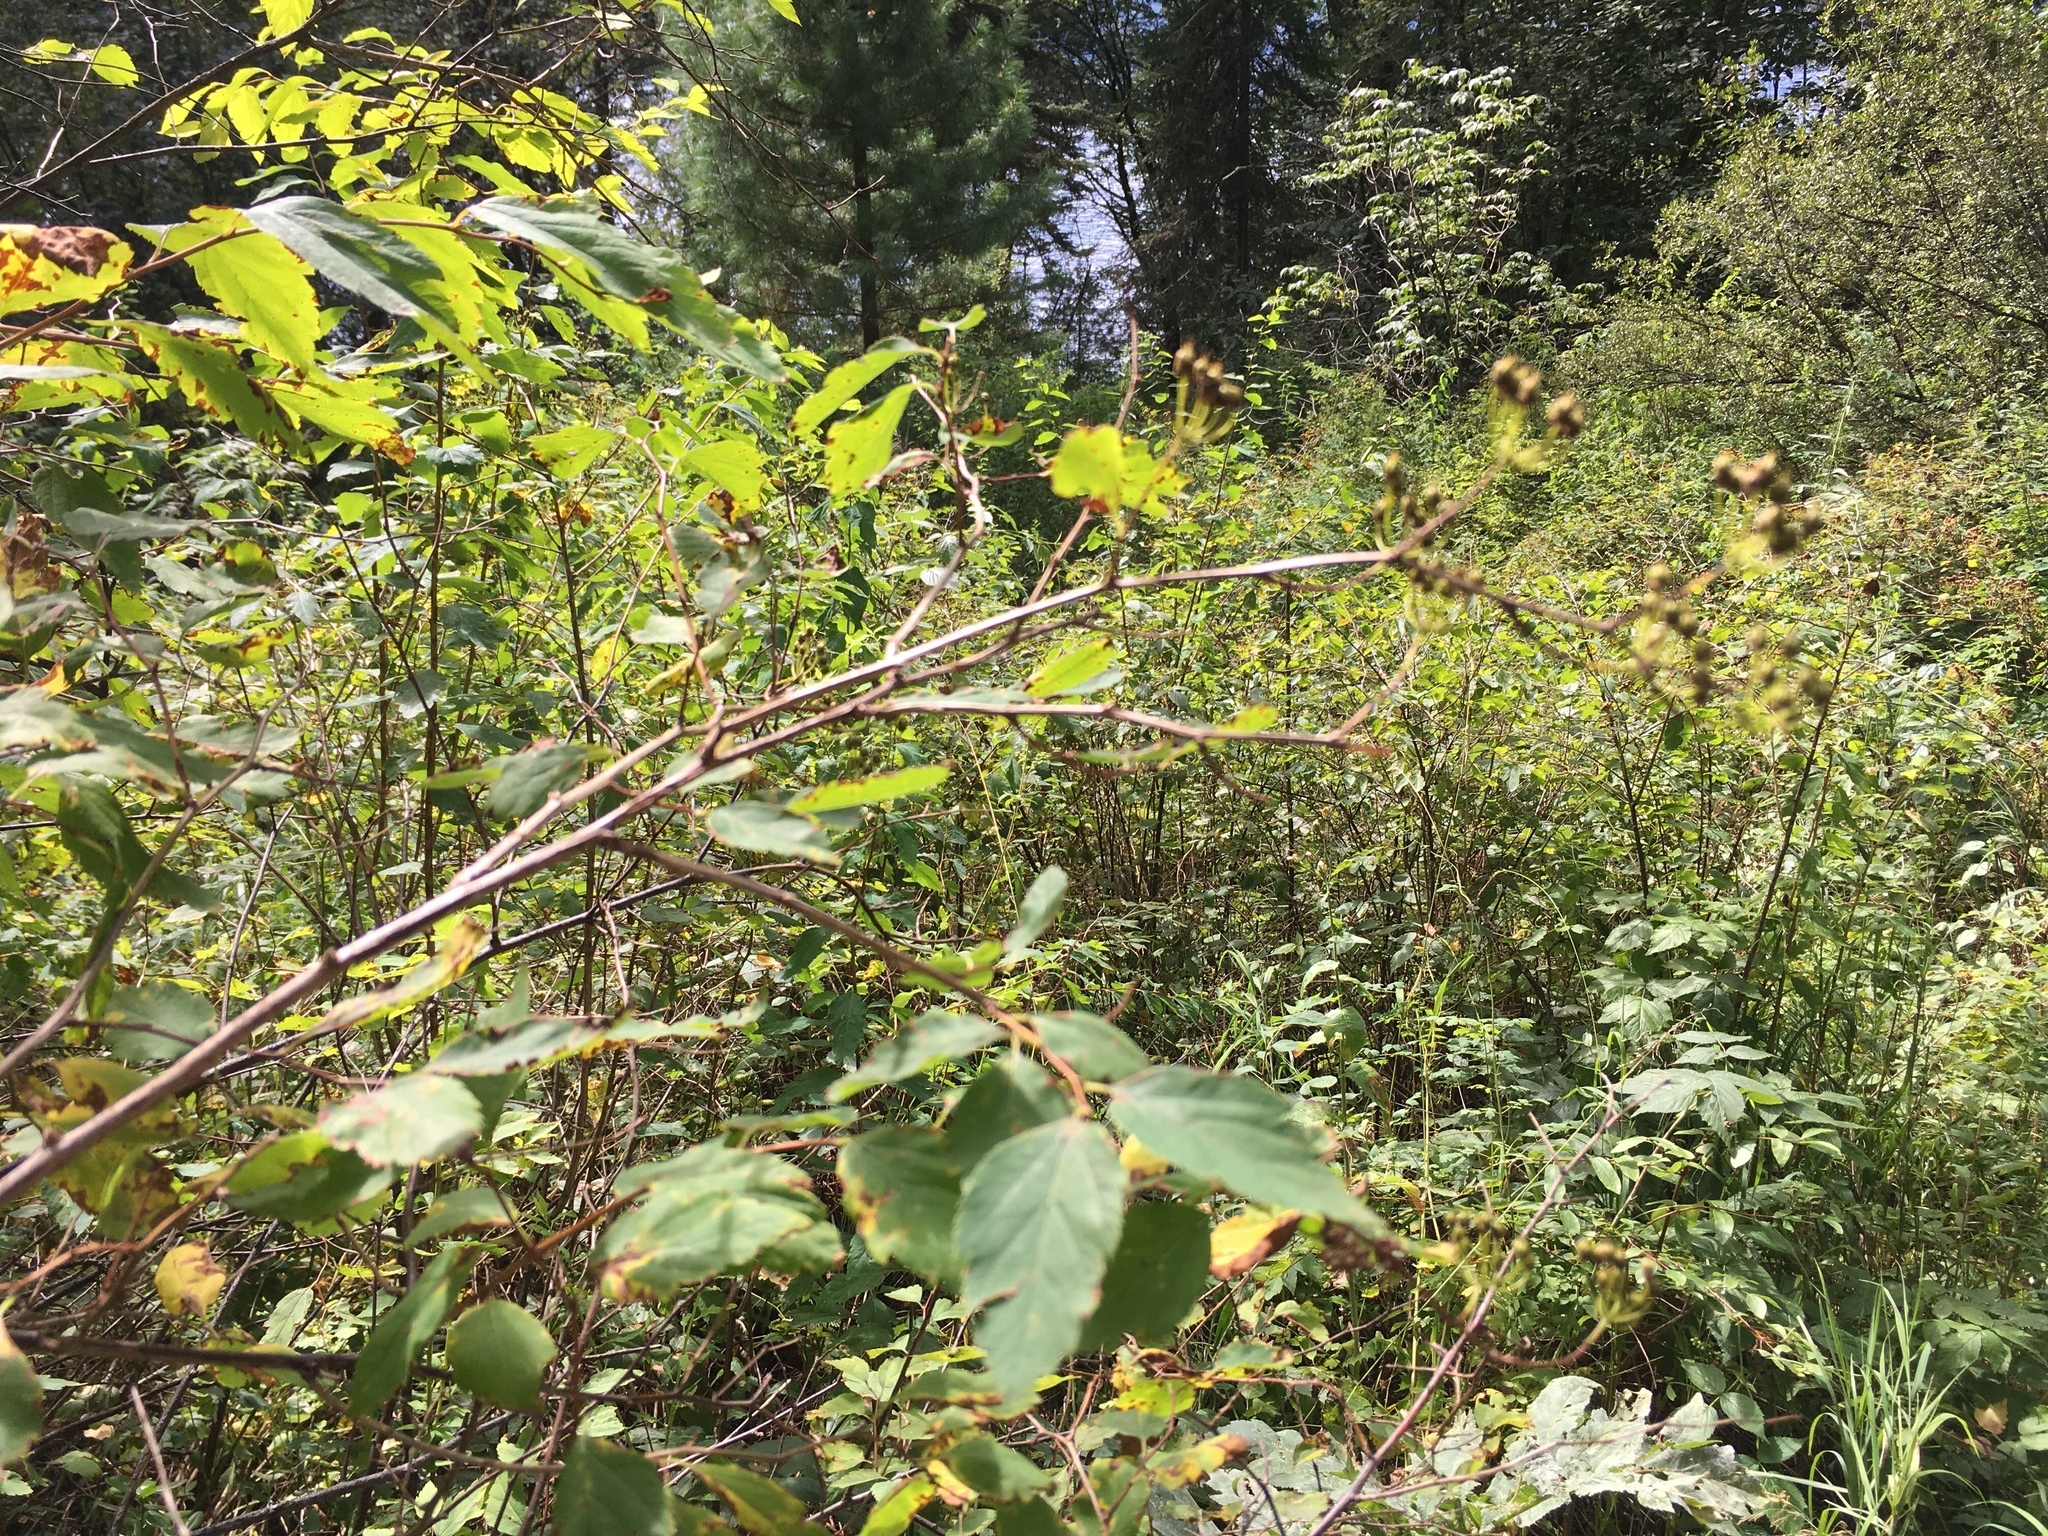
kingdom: Plantae
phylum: Tracheophyta
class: Magnoliopsida
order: Rosales
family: Rosaceae
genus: Spiraea
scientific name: Spiraea media
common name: Russian spiraea
